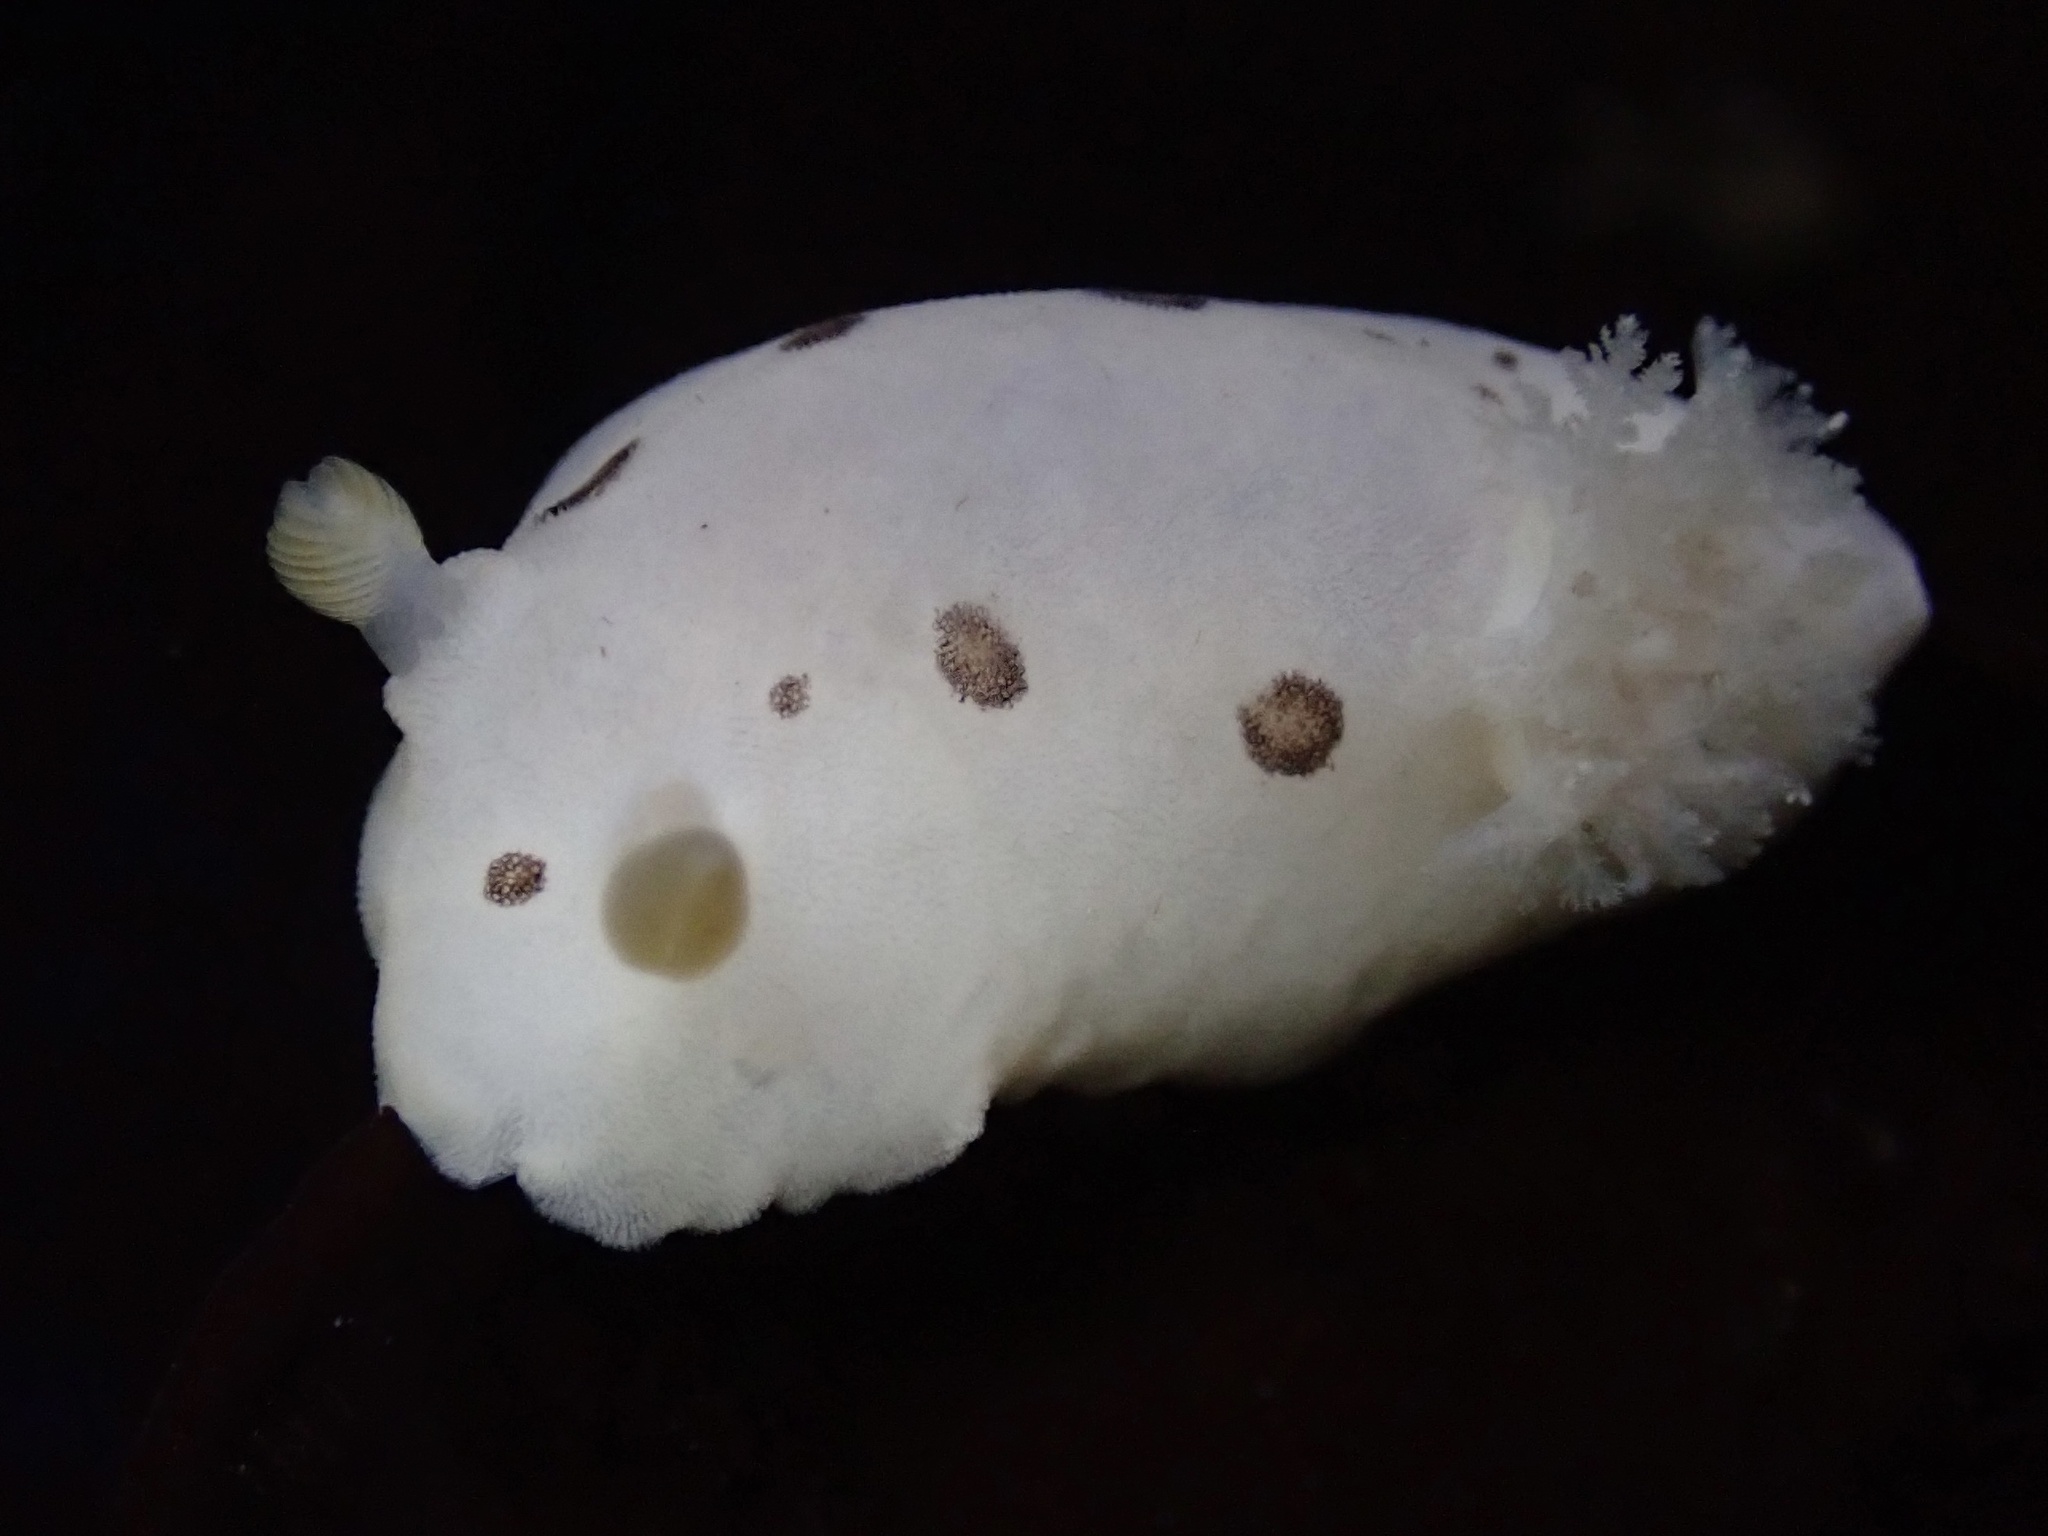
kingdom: Animalia
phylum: Mollusca
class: Gastropoda
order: Nudibranchia
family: Discodorididae
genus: Diaulula
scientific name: Diaulula sandiegensis
